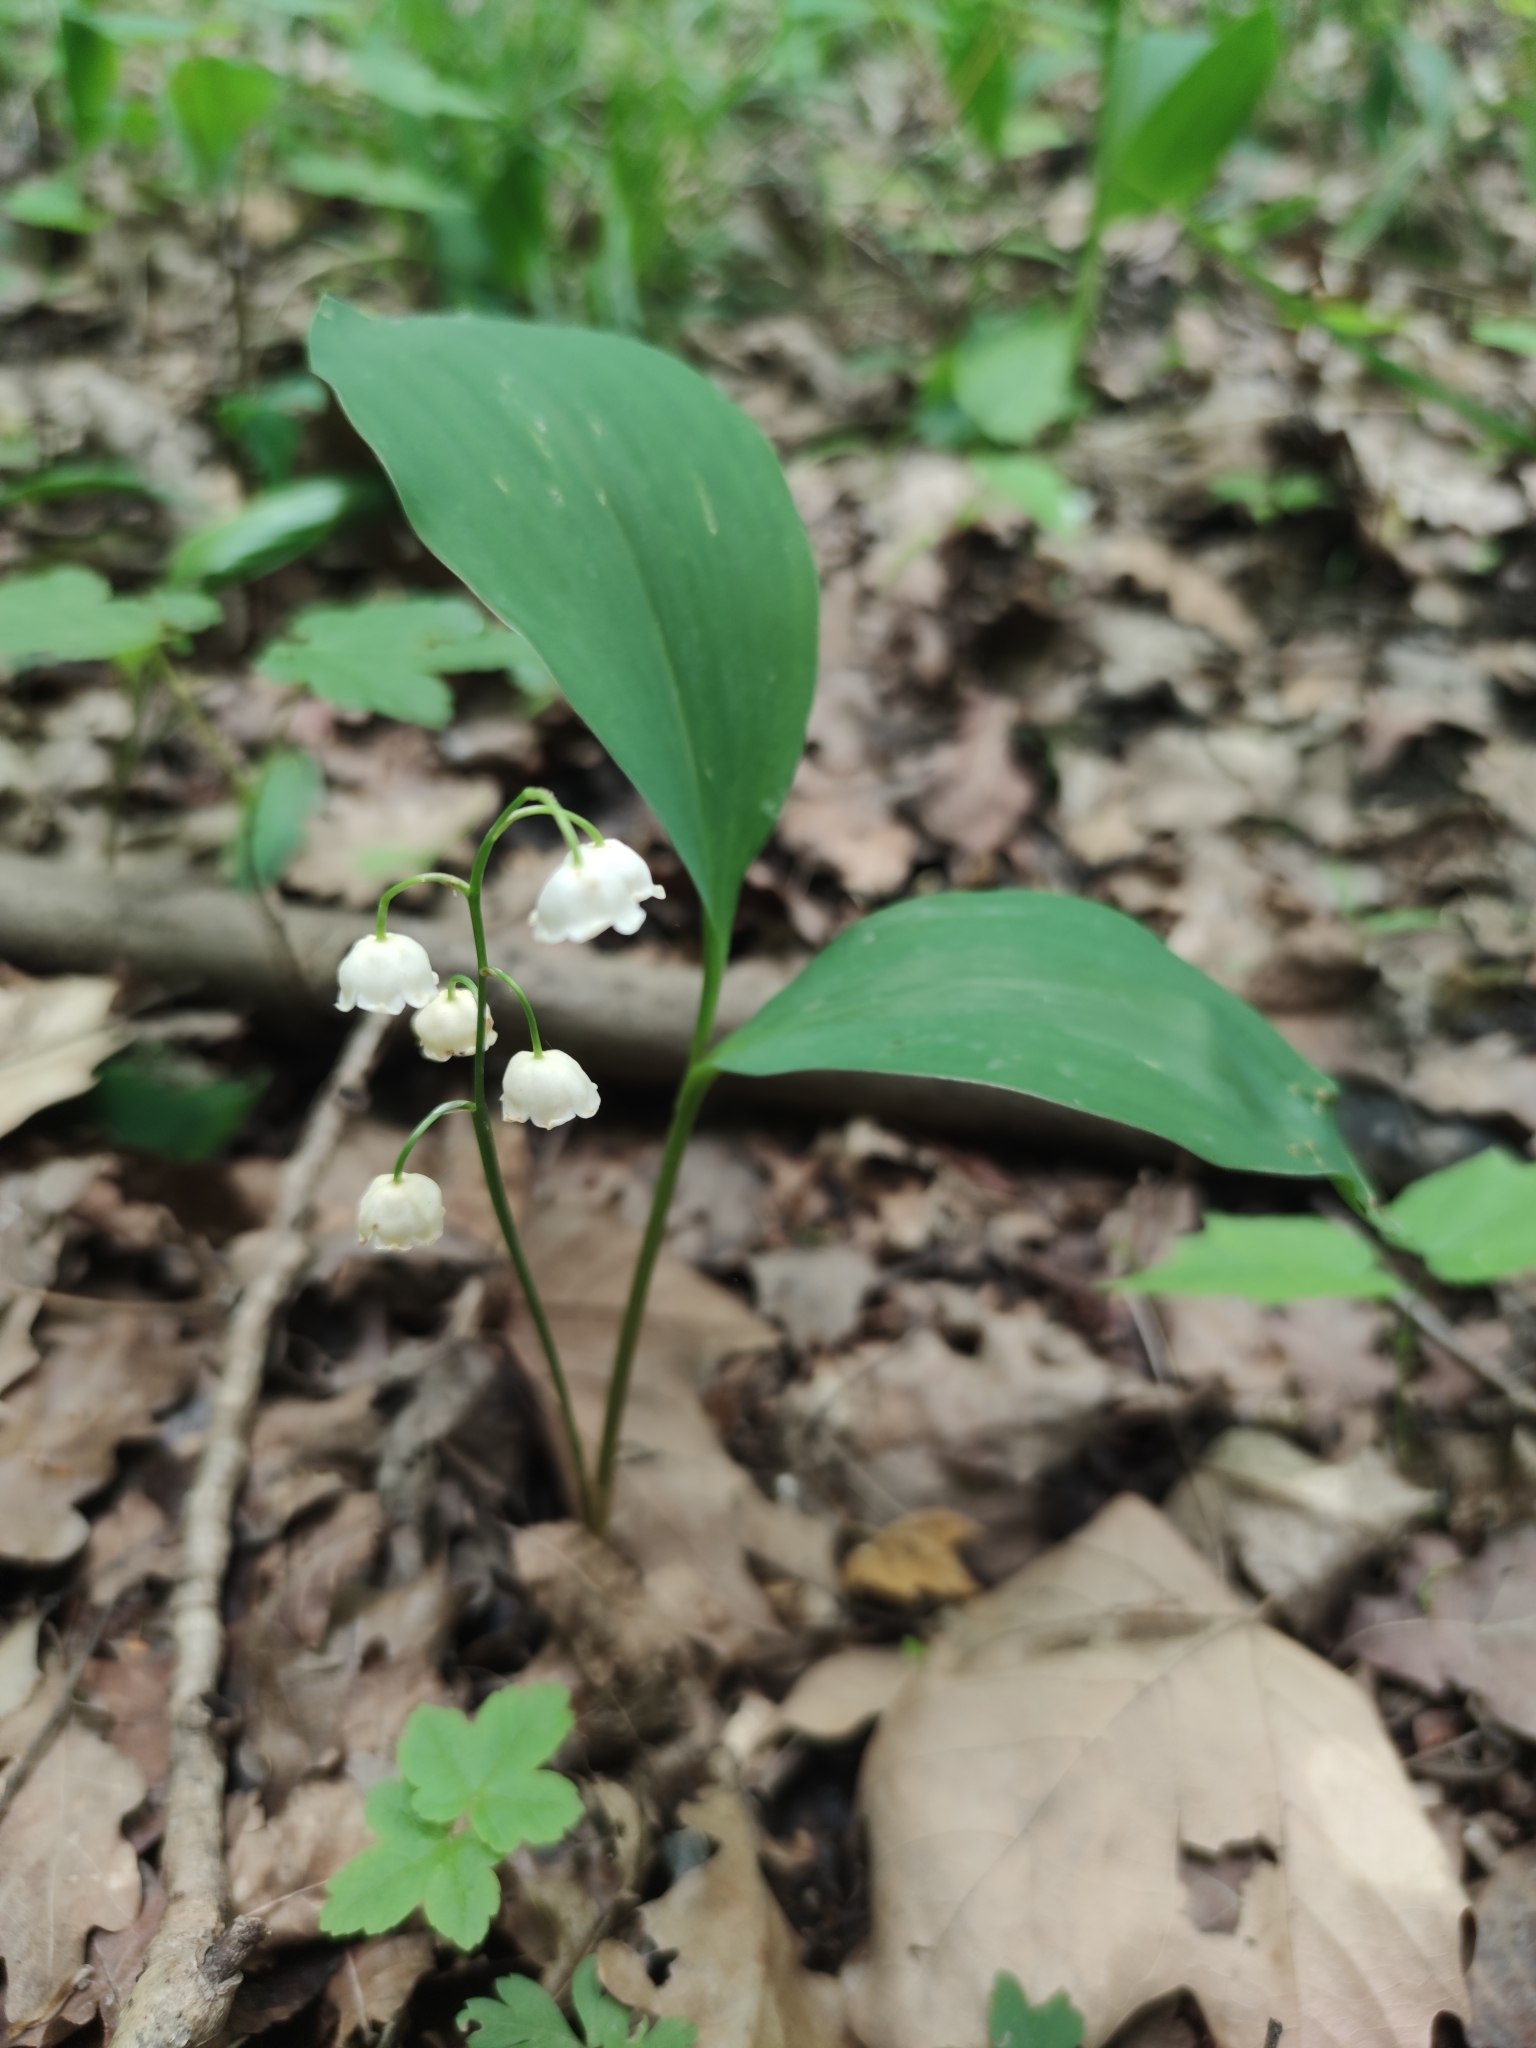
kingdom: Plantae
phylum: Tracheophyta
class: Liliopsida
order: Asparagales
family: Asparagaceae
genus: Convallaria
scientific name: Convallaria majalis
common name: Lily-of-the-valley
